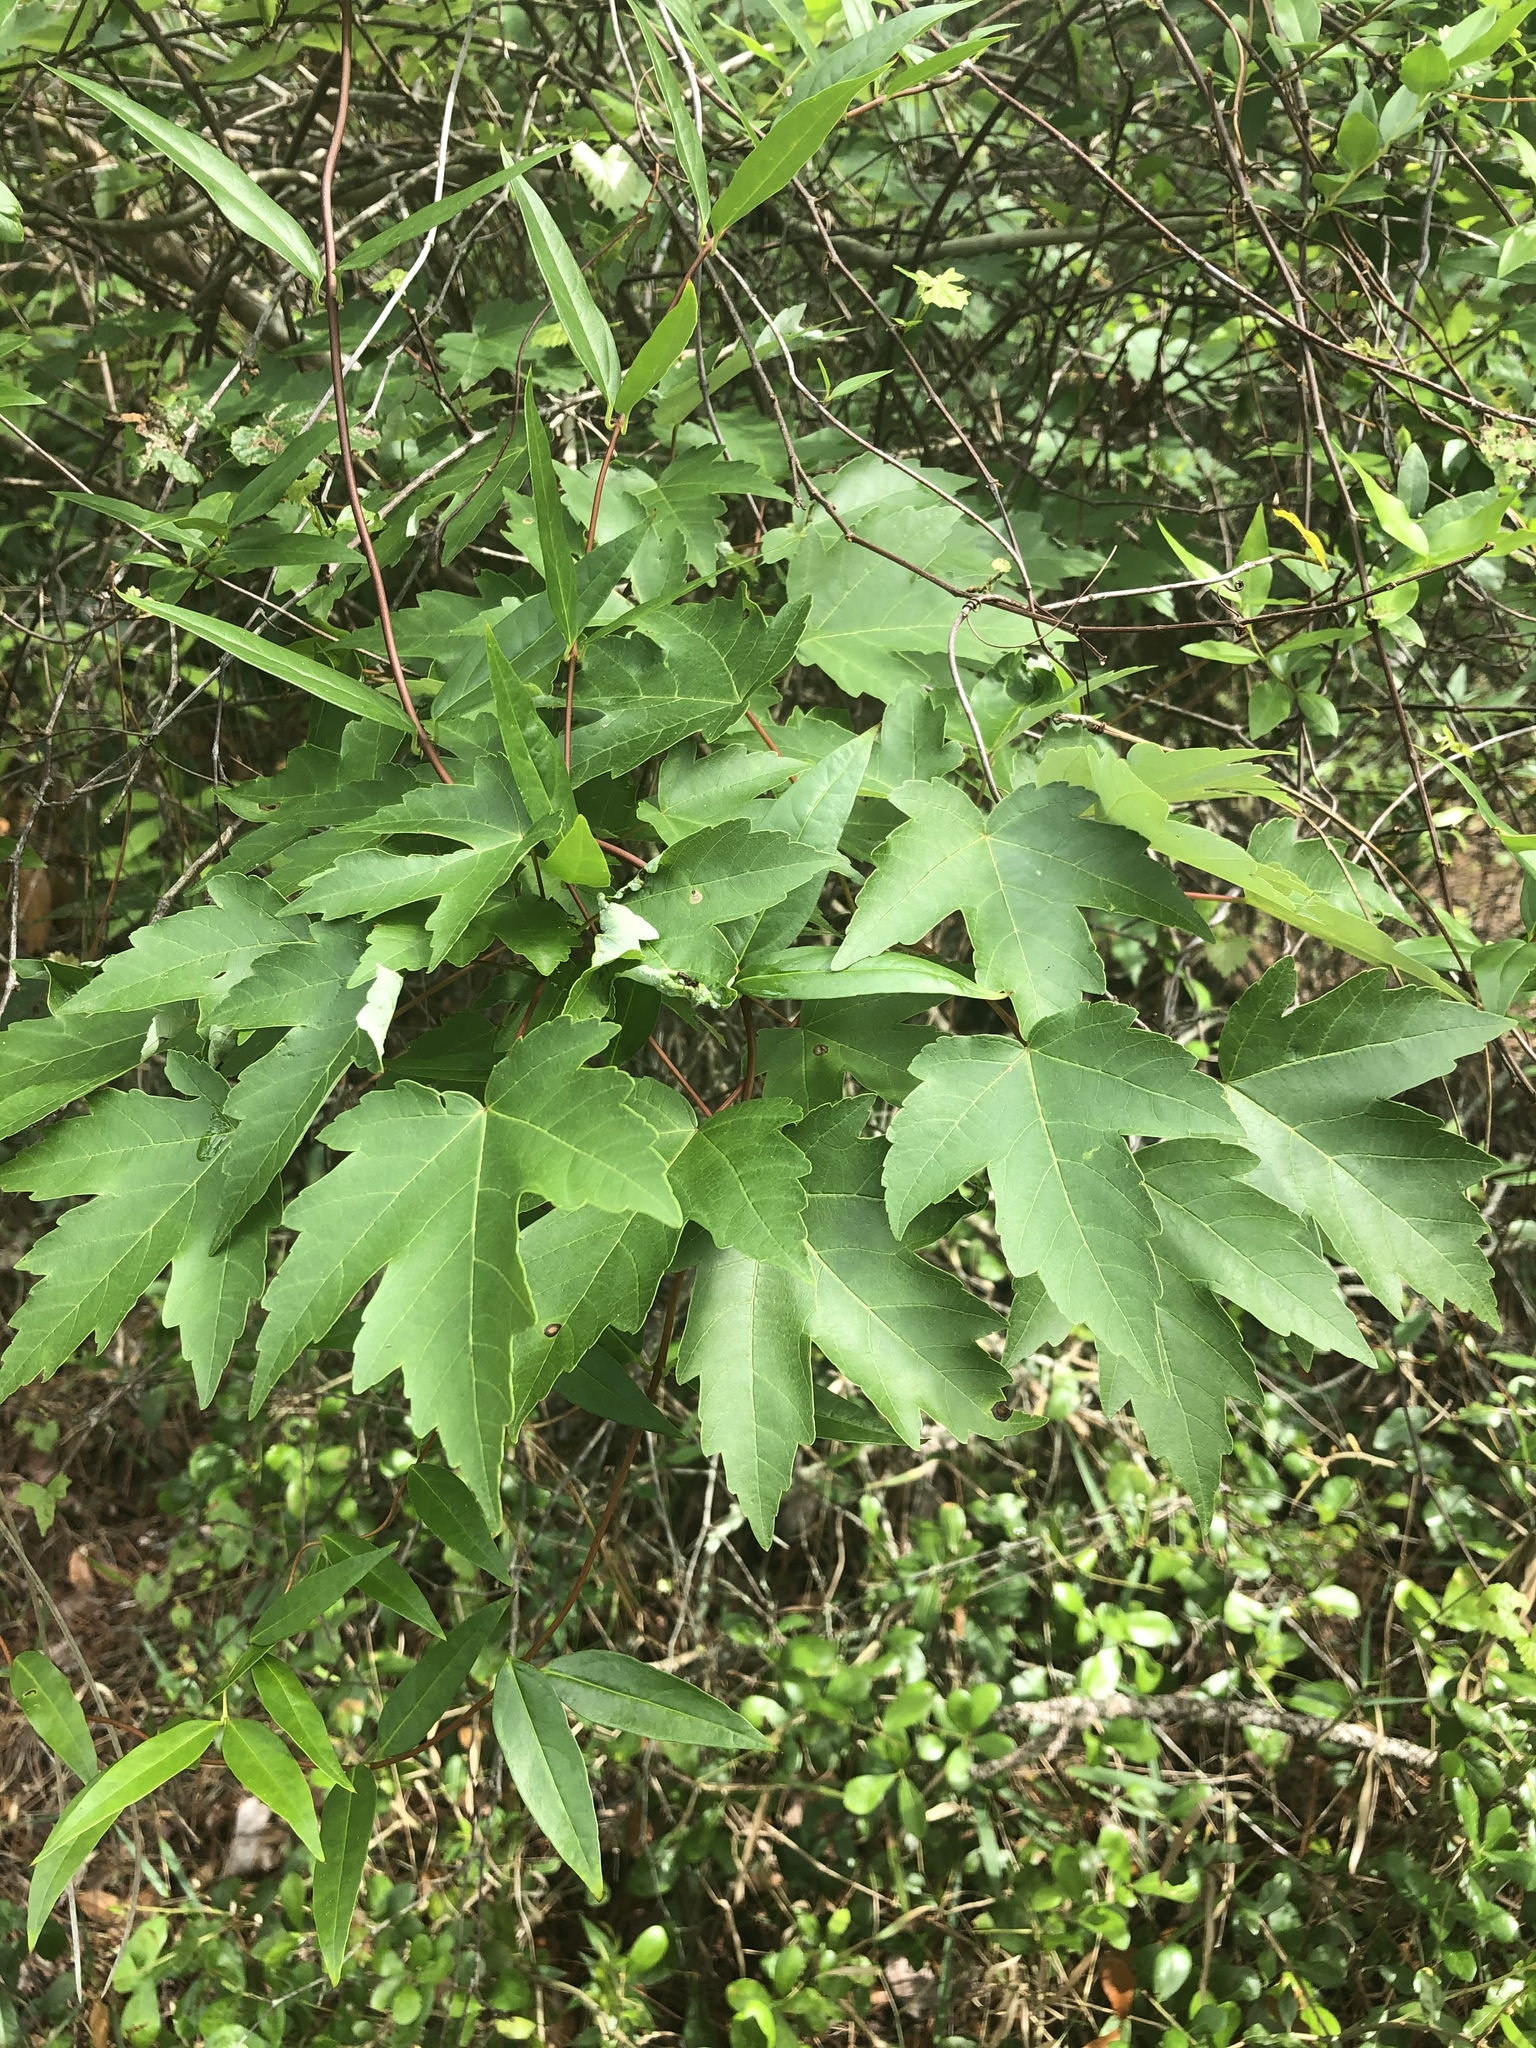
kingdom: Plantae
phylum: Tracheophyta
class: Magnoliopsida
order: Sapindales
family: Sapindaceae
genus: Acer
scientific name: Acer rubrum
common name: Red maple
